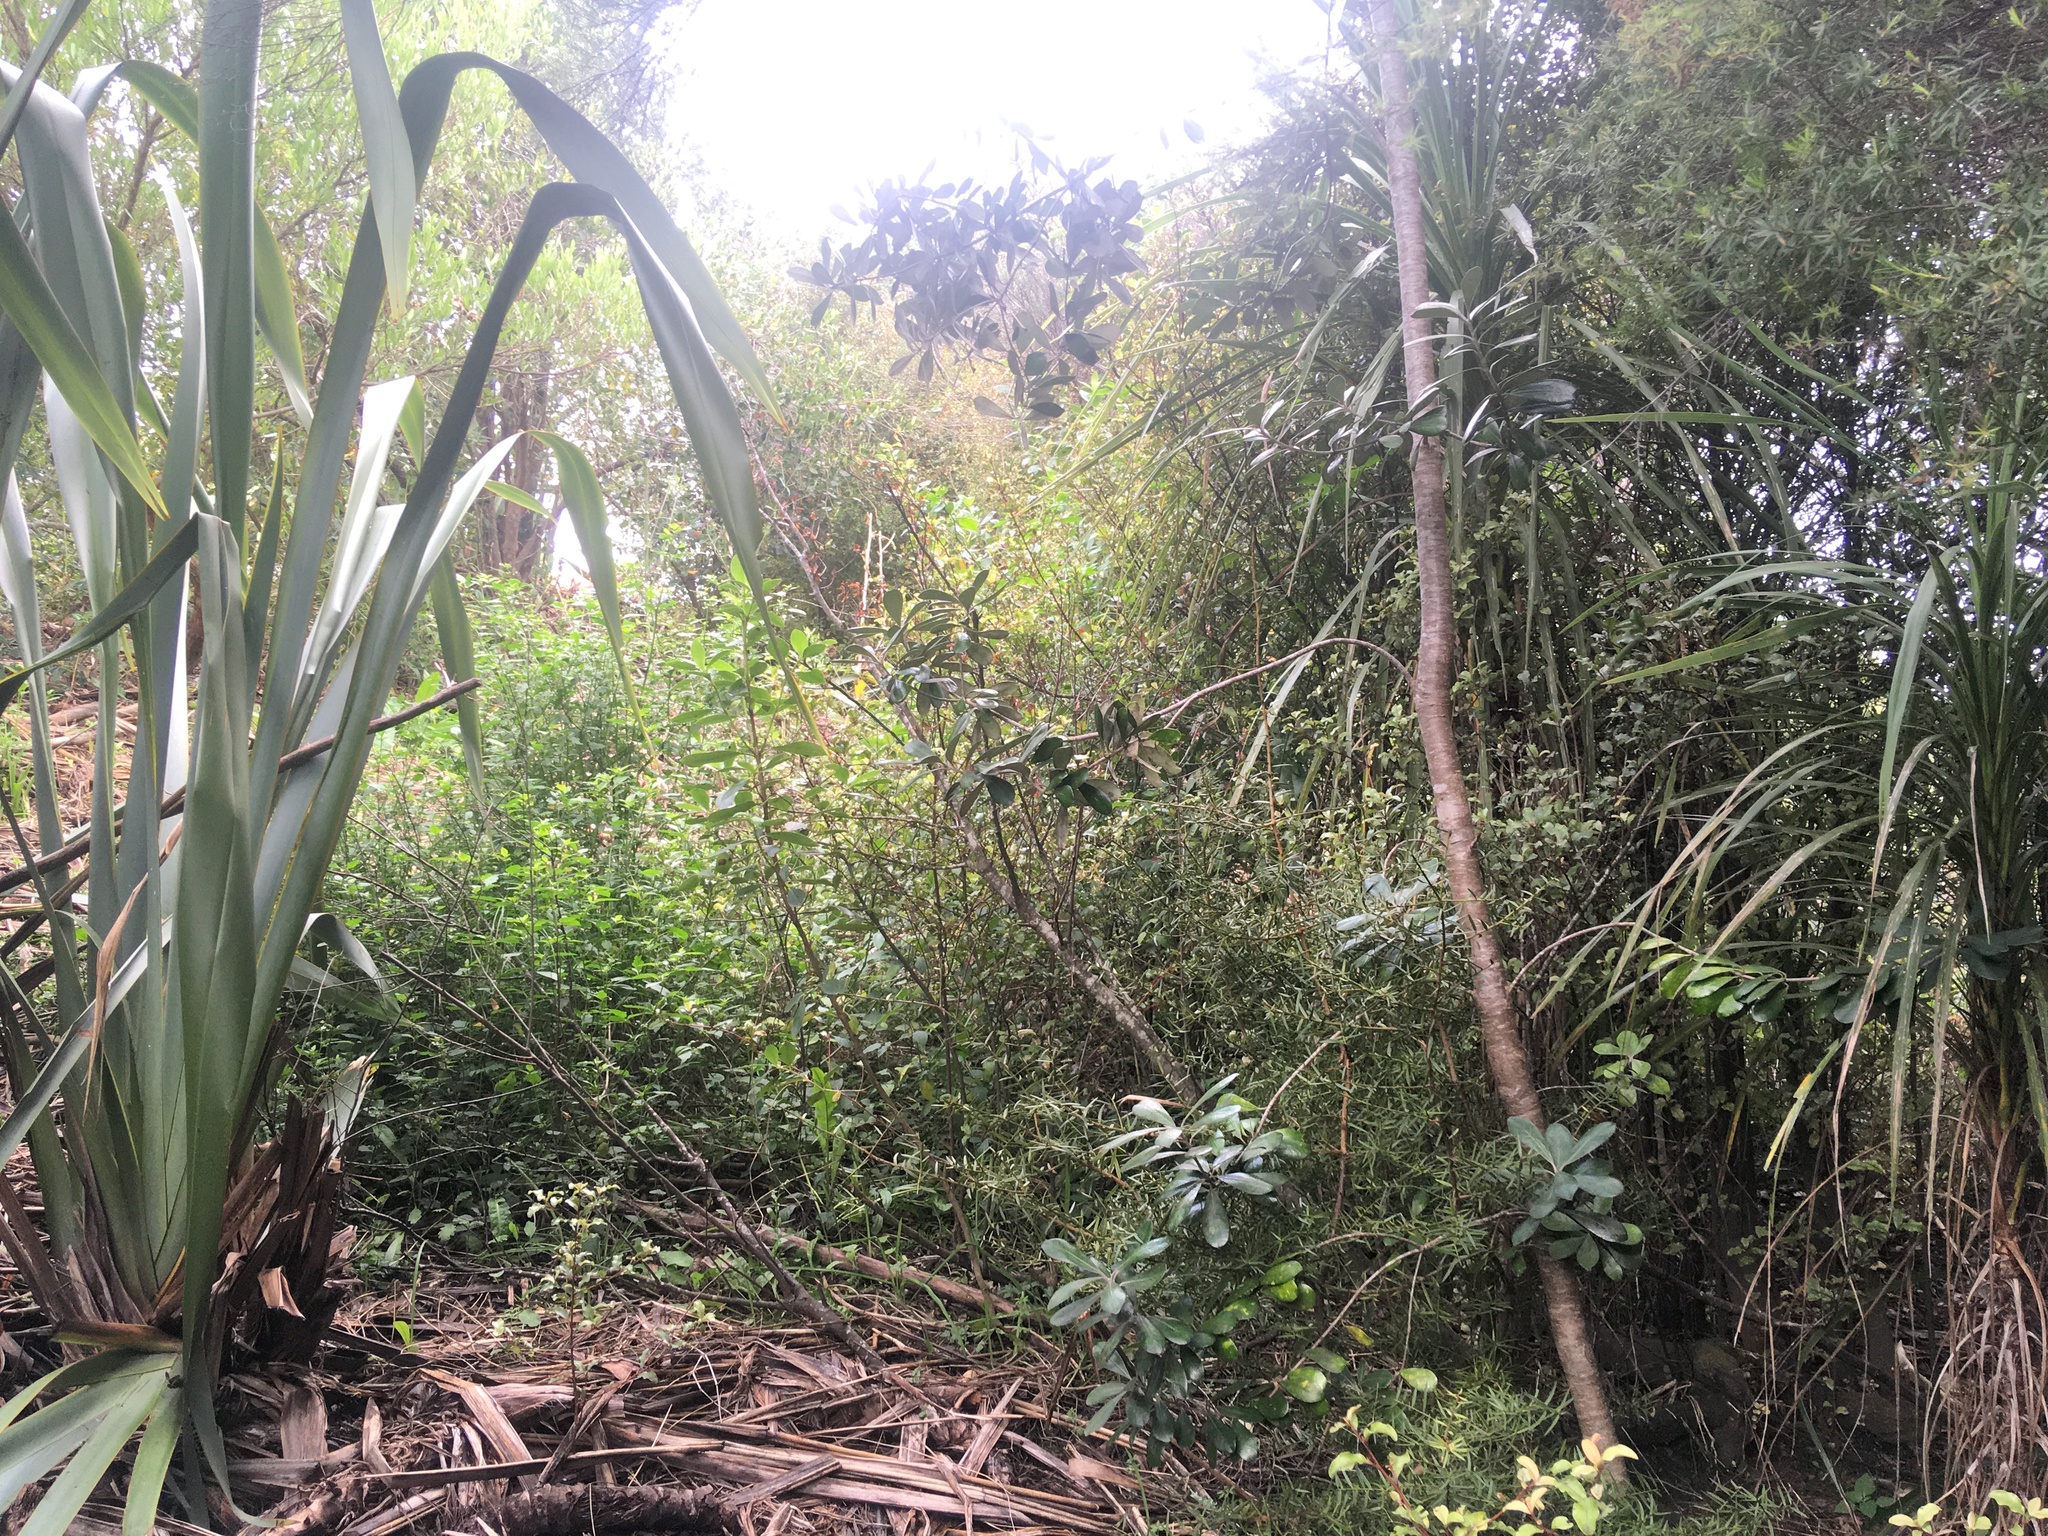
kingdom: Plantae
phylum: Tracheophyta
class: Magnoliopsida
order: Apiales
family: Pittosporaceae
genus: Pittosporum
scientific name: Pittosporum crassifolium
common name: Karo
